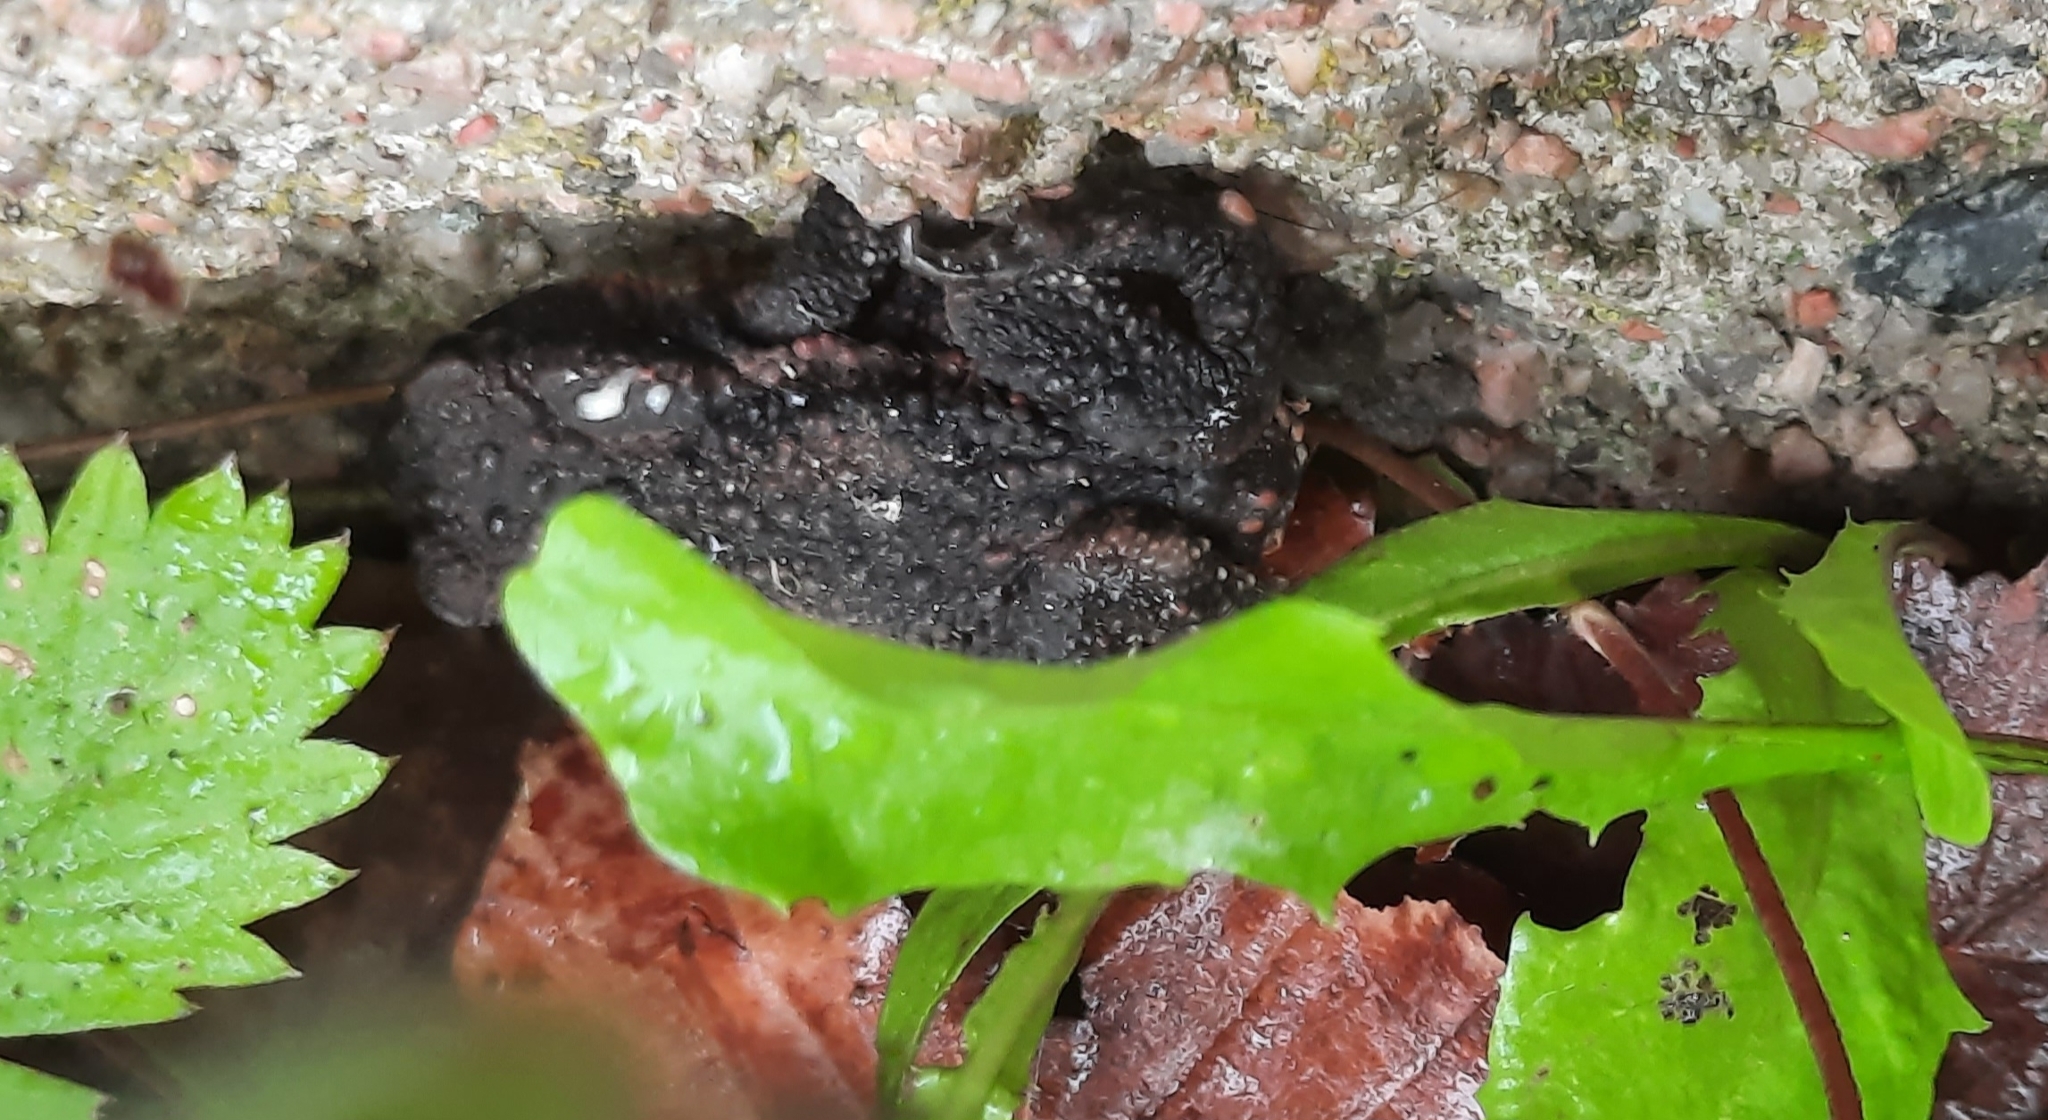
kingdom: Animalia
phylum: Chordata
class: Amphibia
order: Anura
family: Bufonidae
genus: Bufo
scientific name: Bufo bufo
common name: Common toad
